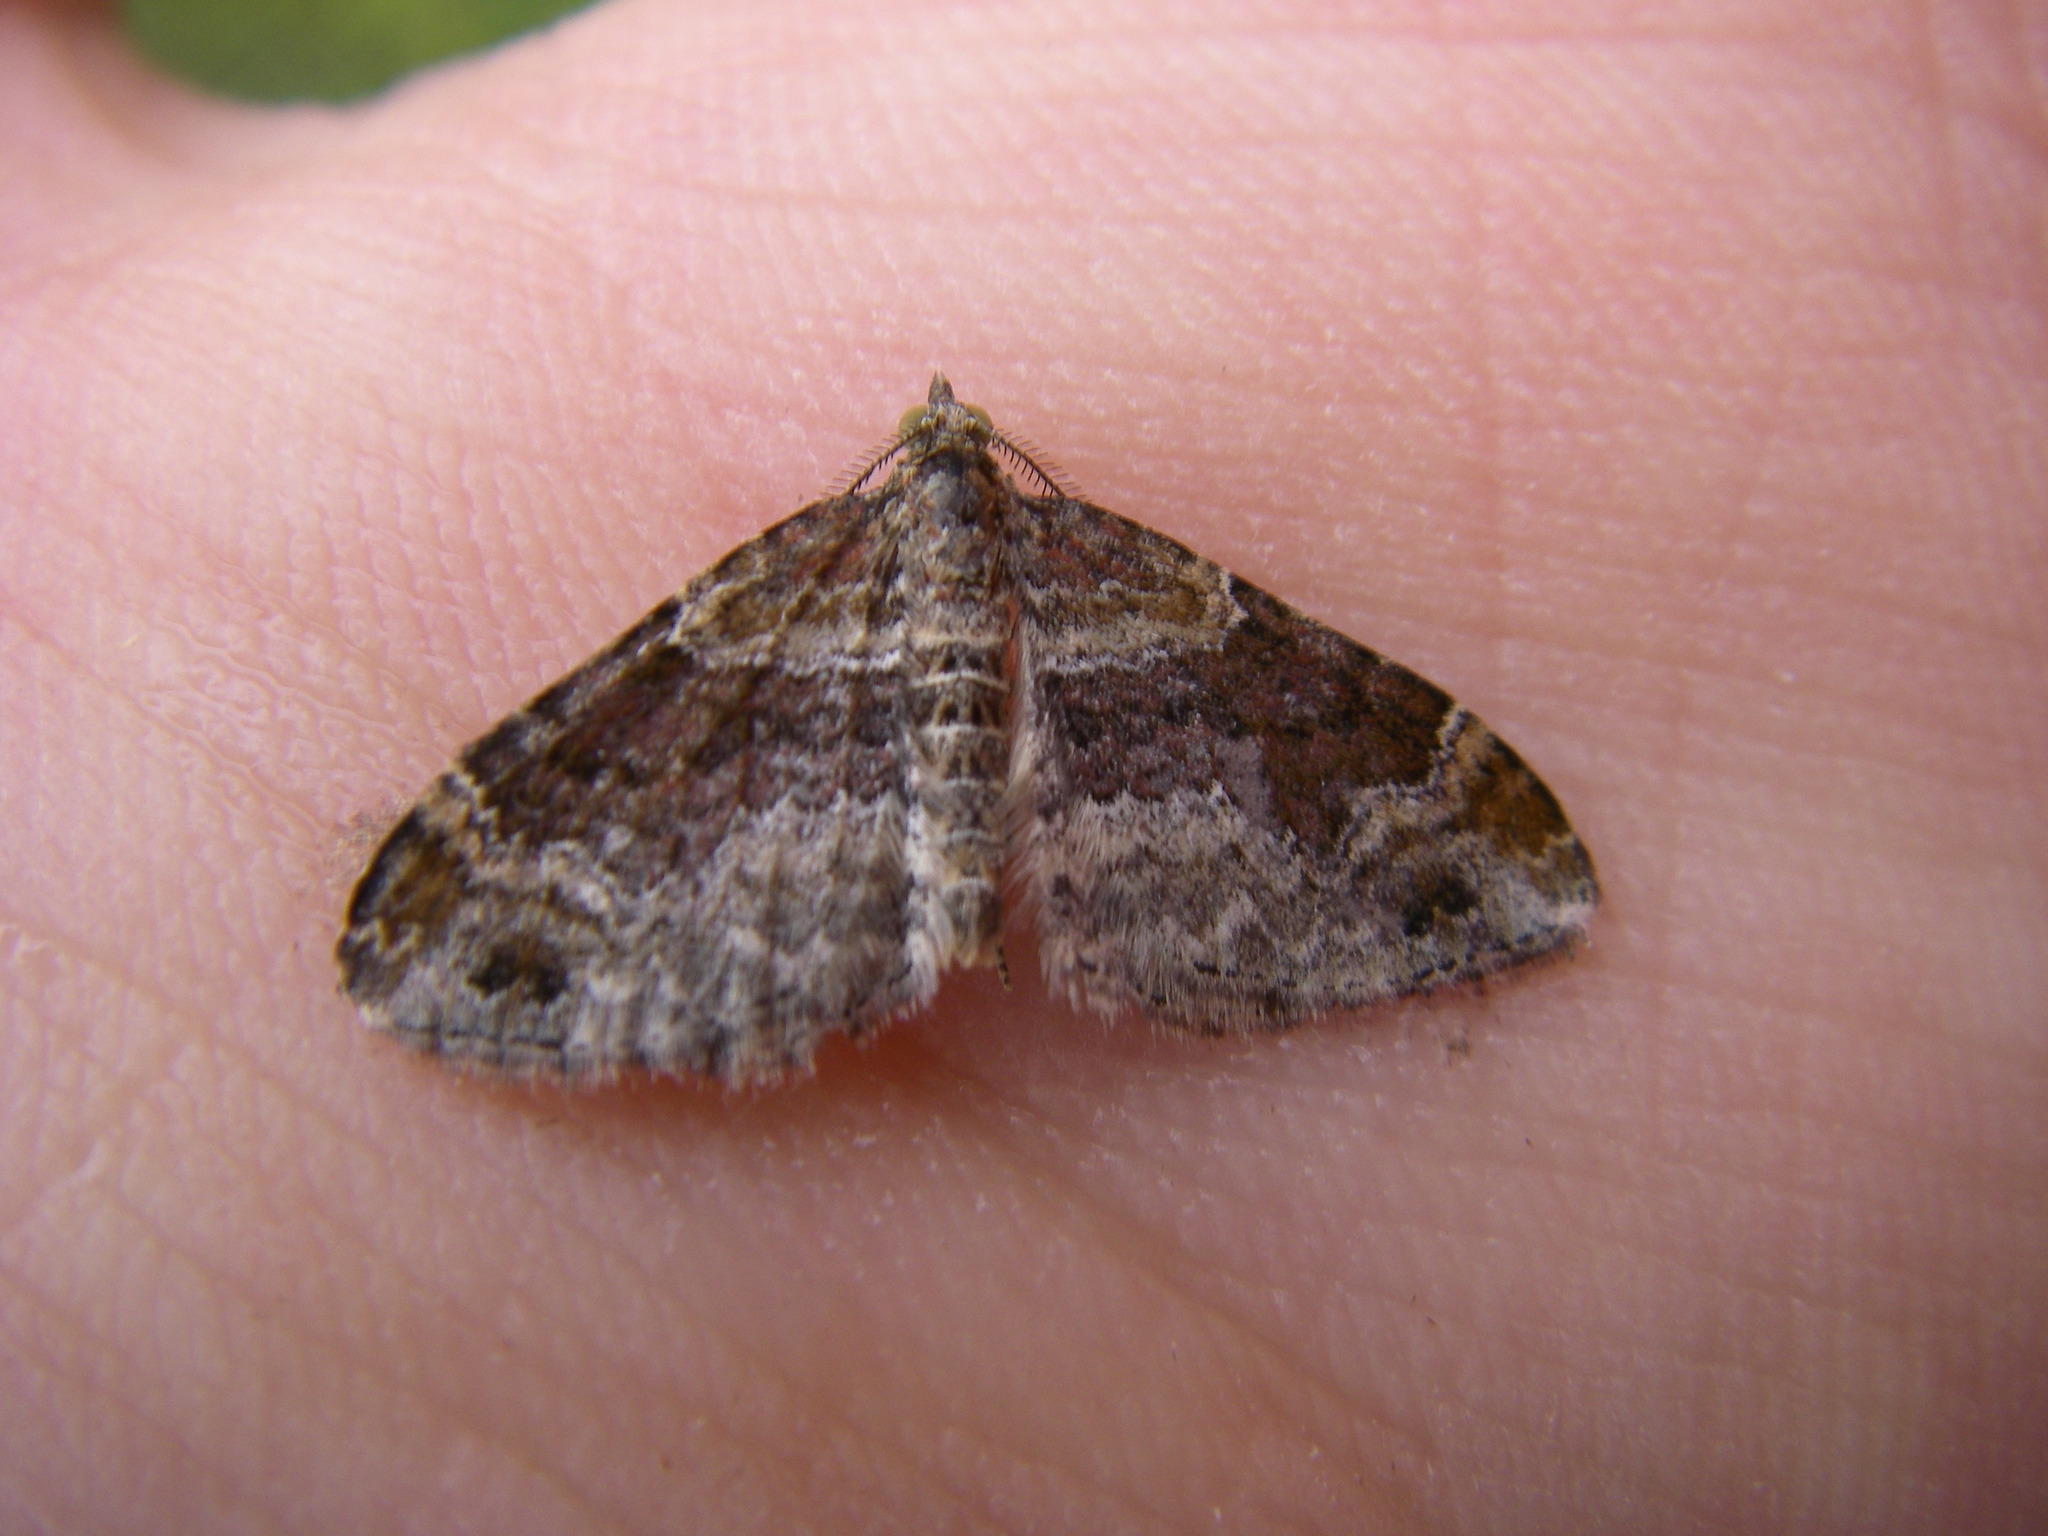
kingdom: Animalia
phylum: Arthropoda
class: Insecta
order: Lepidoptera
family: Geometridae
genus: Xanthorhoe
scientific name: Xanthorhoe spadicearia
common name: Red twin-spot carpet
